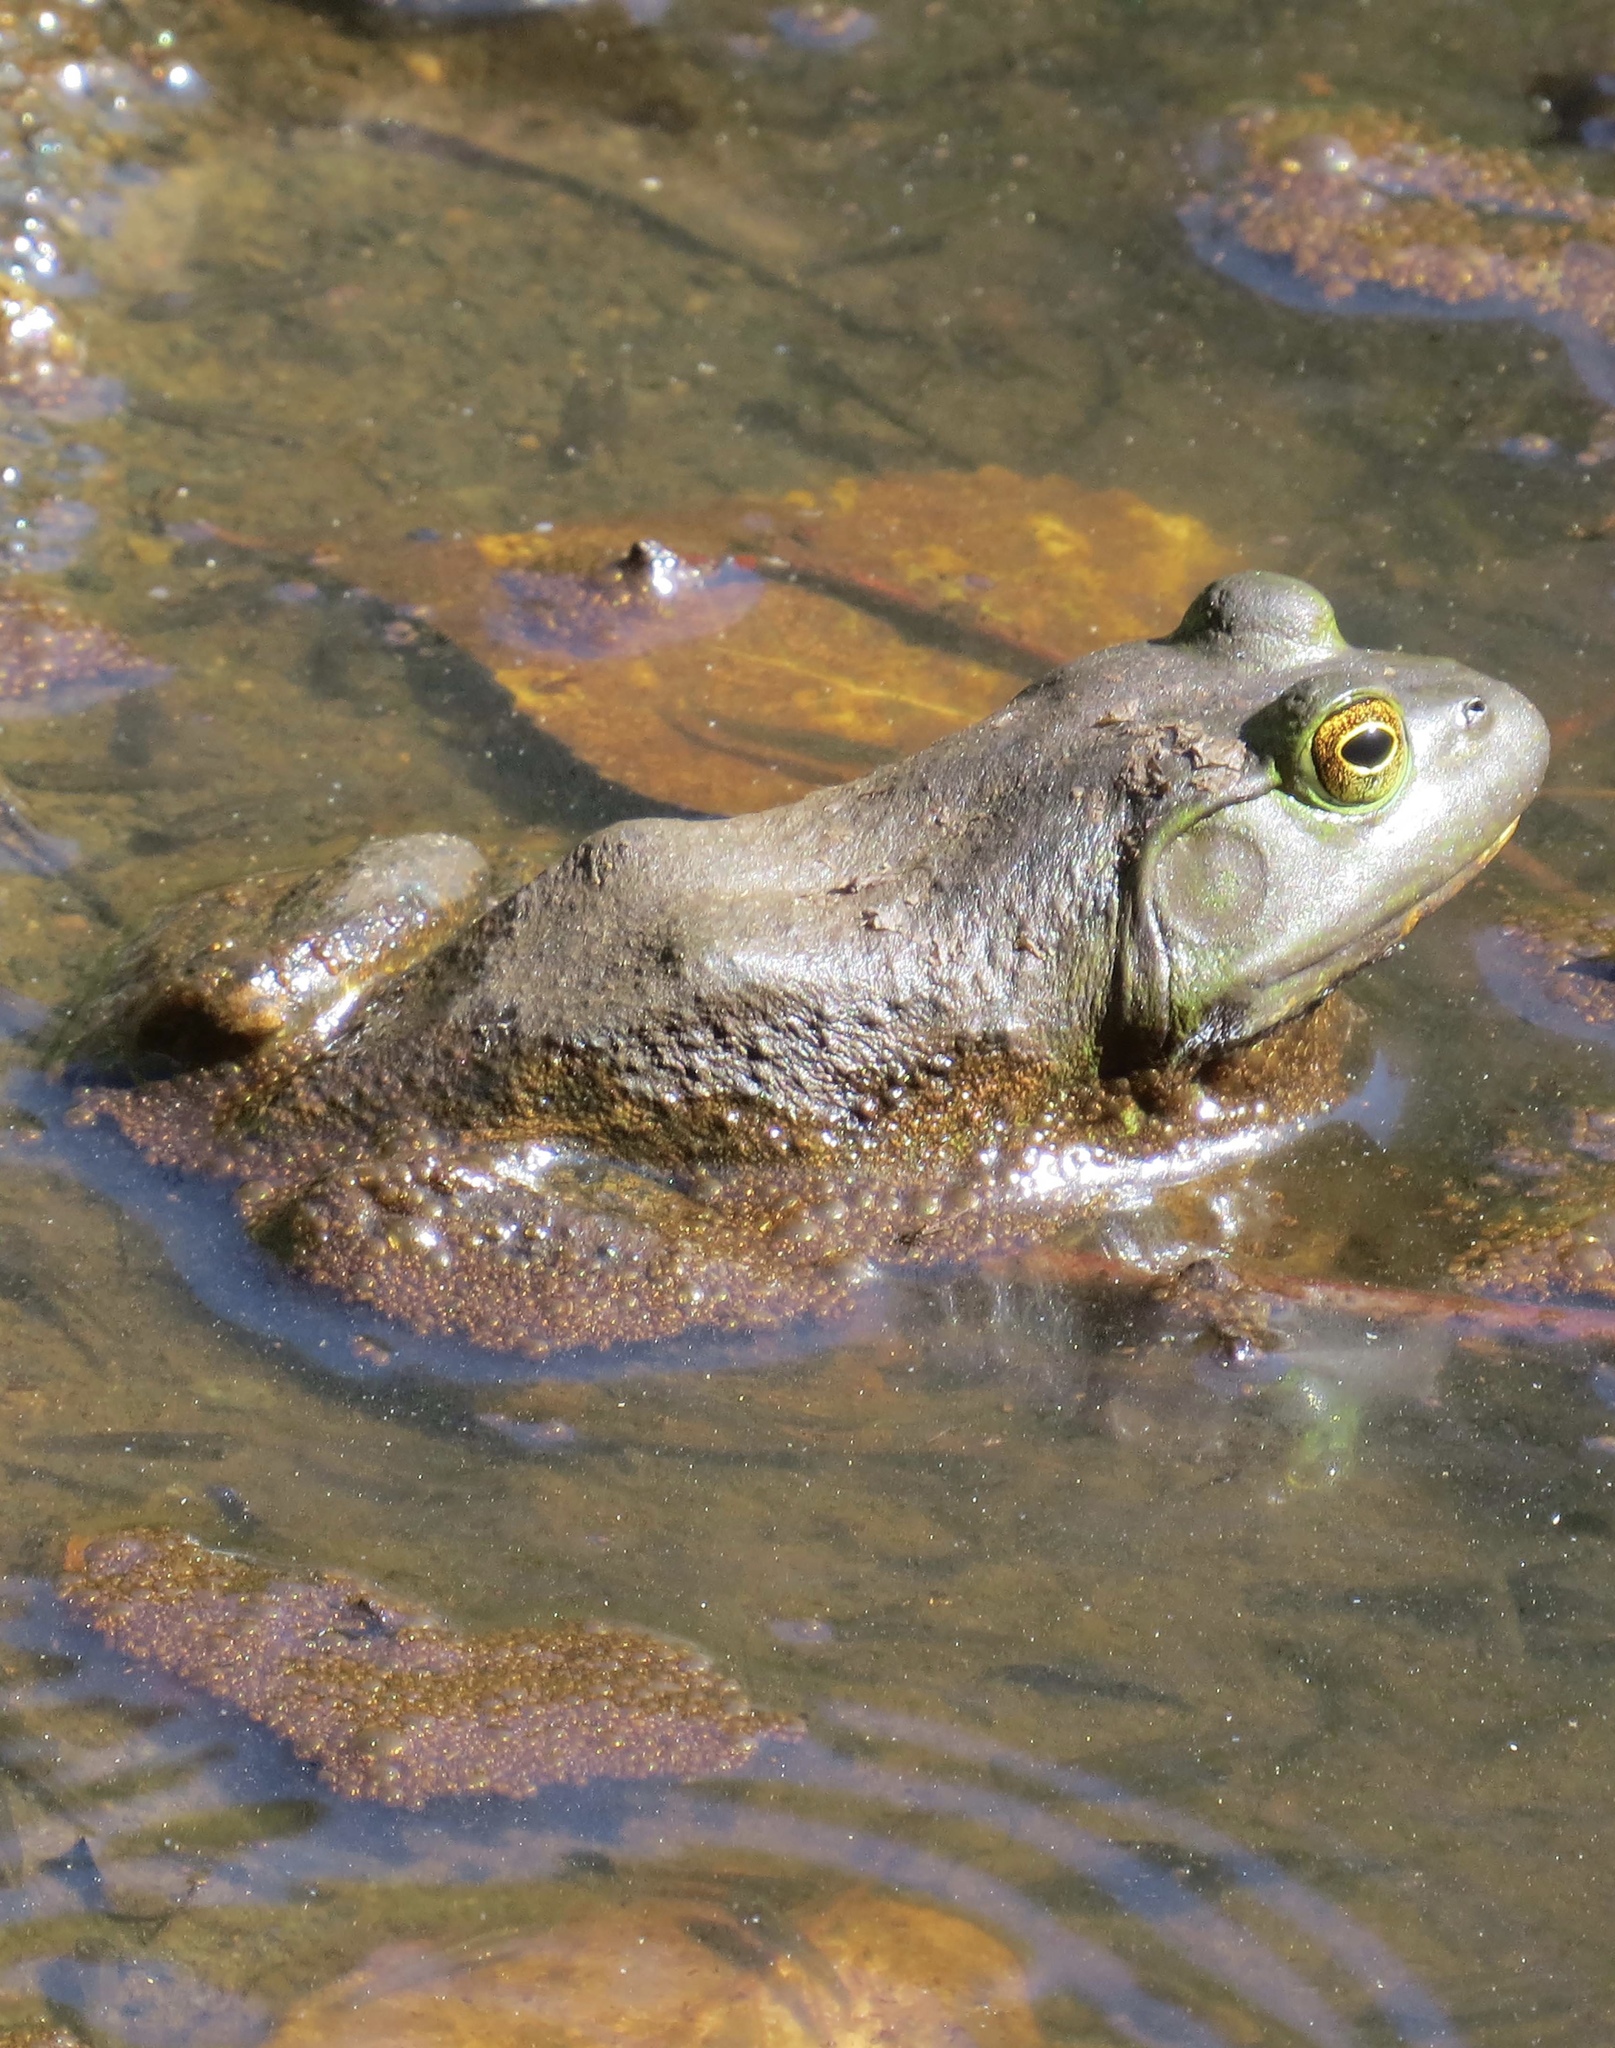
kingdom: Animalia
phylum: Chordata
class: Amphibia
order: Anura
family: Ranidae
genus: Lithobates
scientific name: Lithobates catesbeianus
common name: American bullfrog
